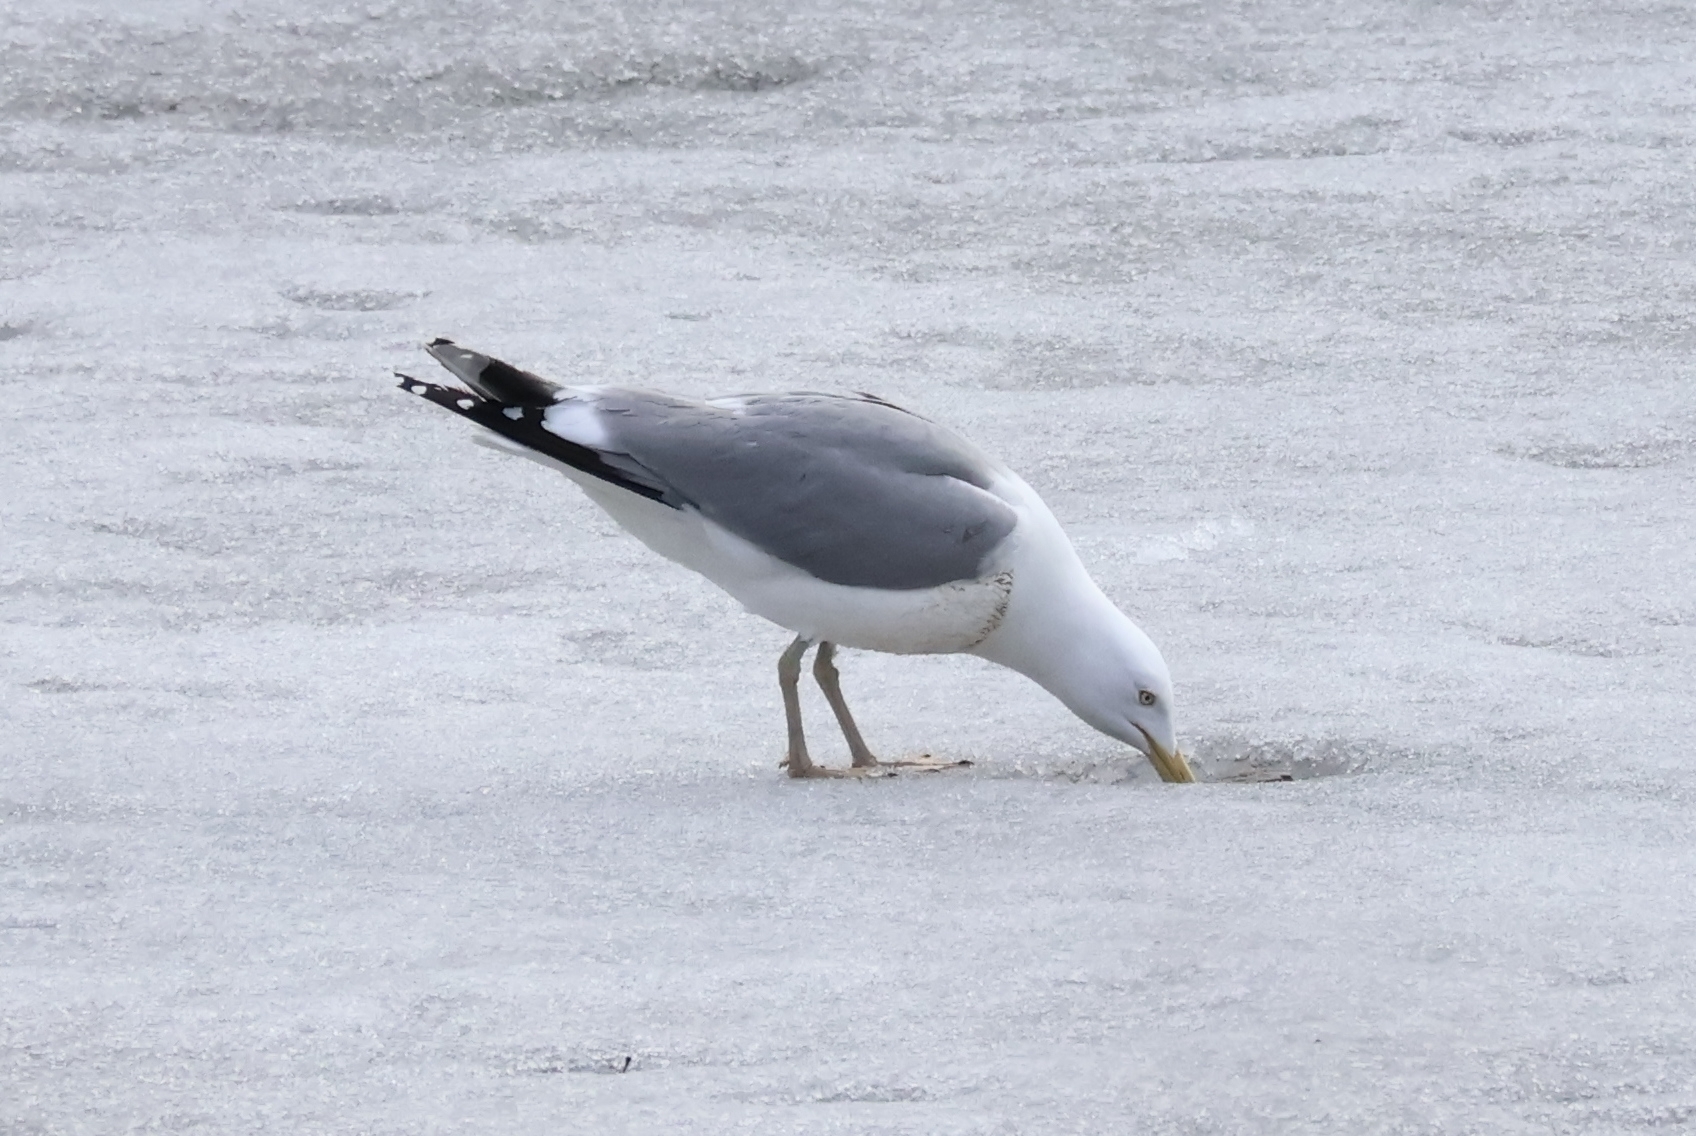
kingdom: Animalia
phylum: Chordata
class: Aves
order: Charadriiformes
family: Laridae
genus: Larus
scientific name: Larus argentatus
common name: Herring gull
